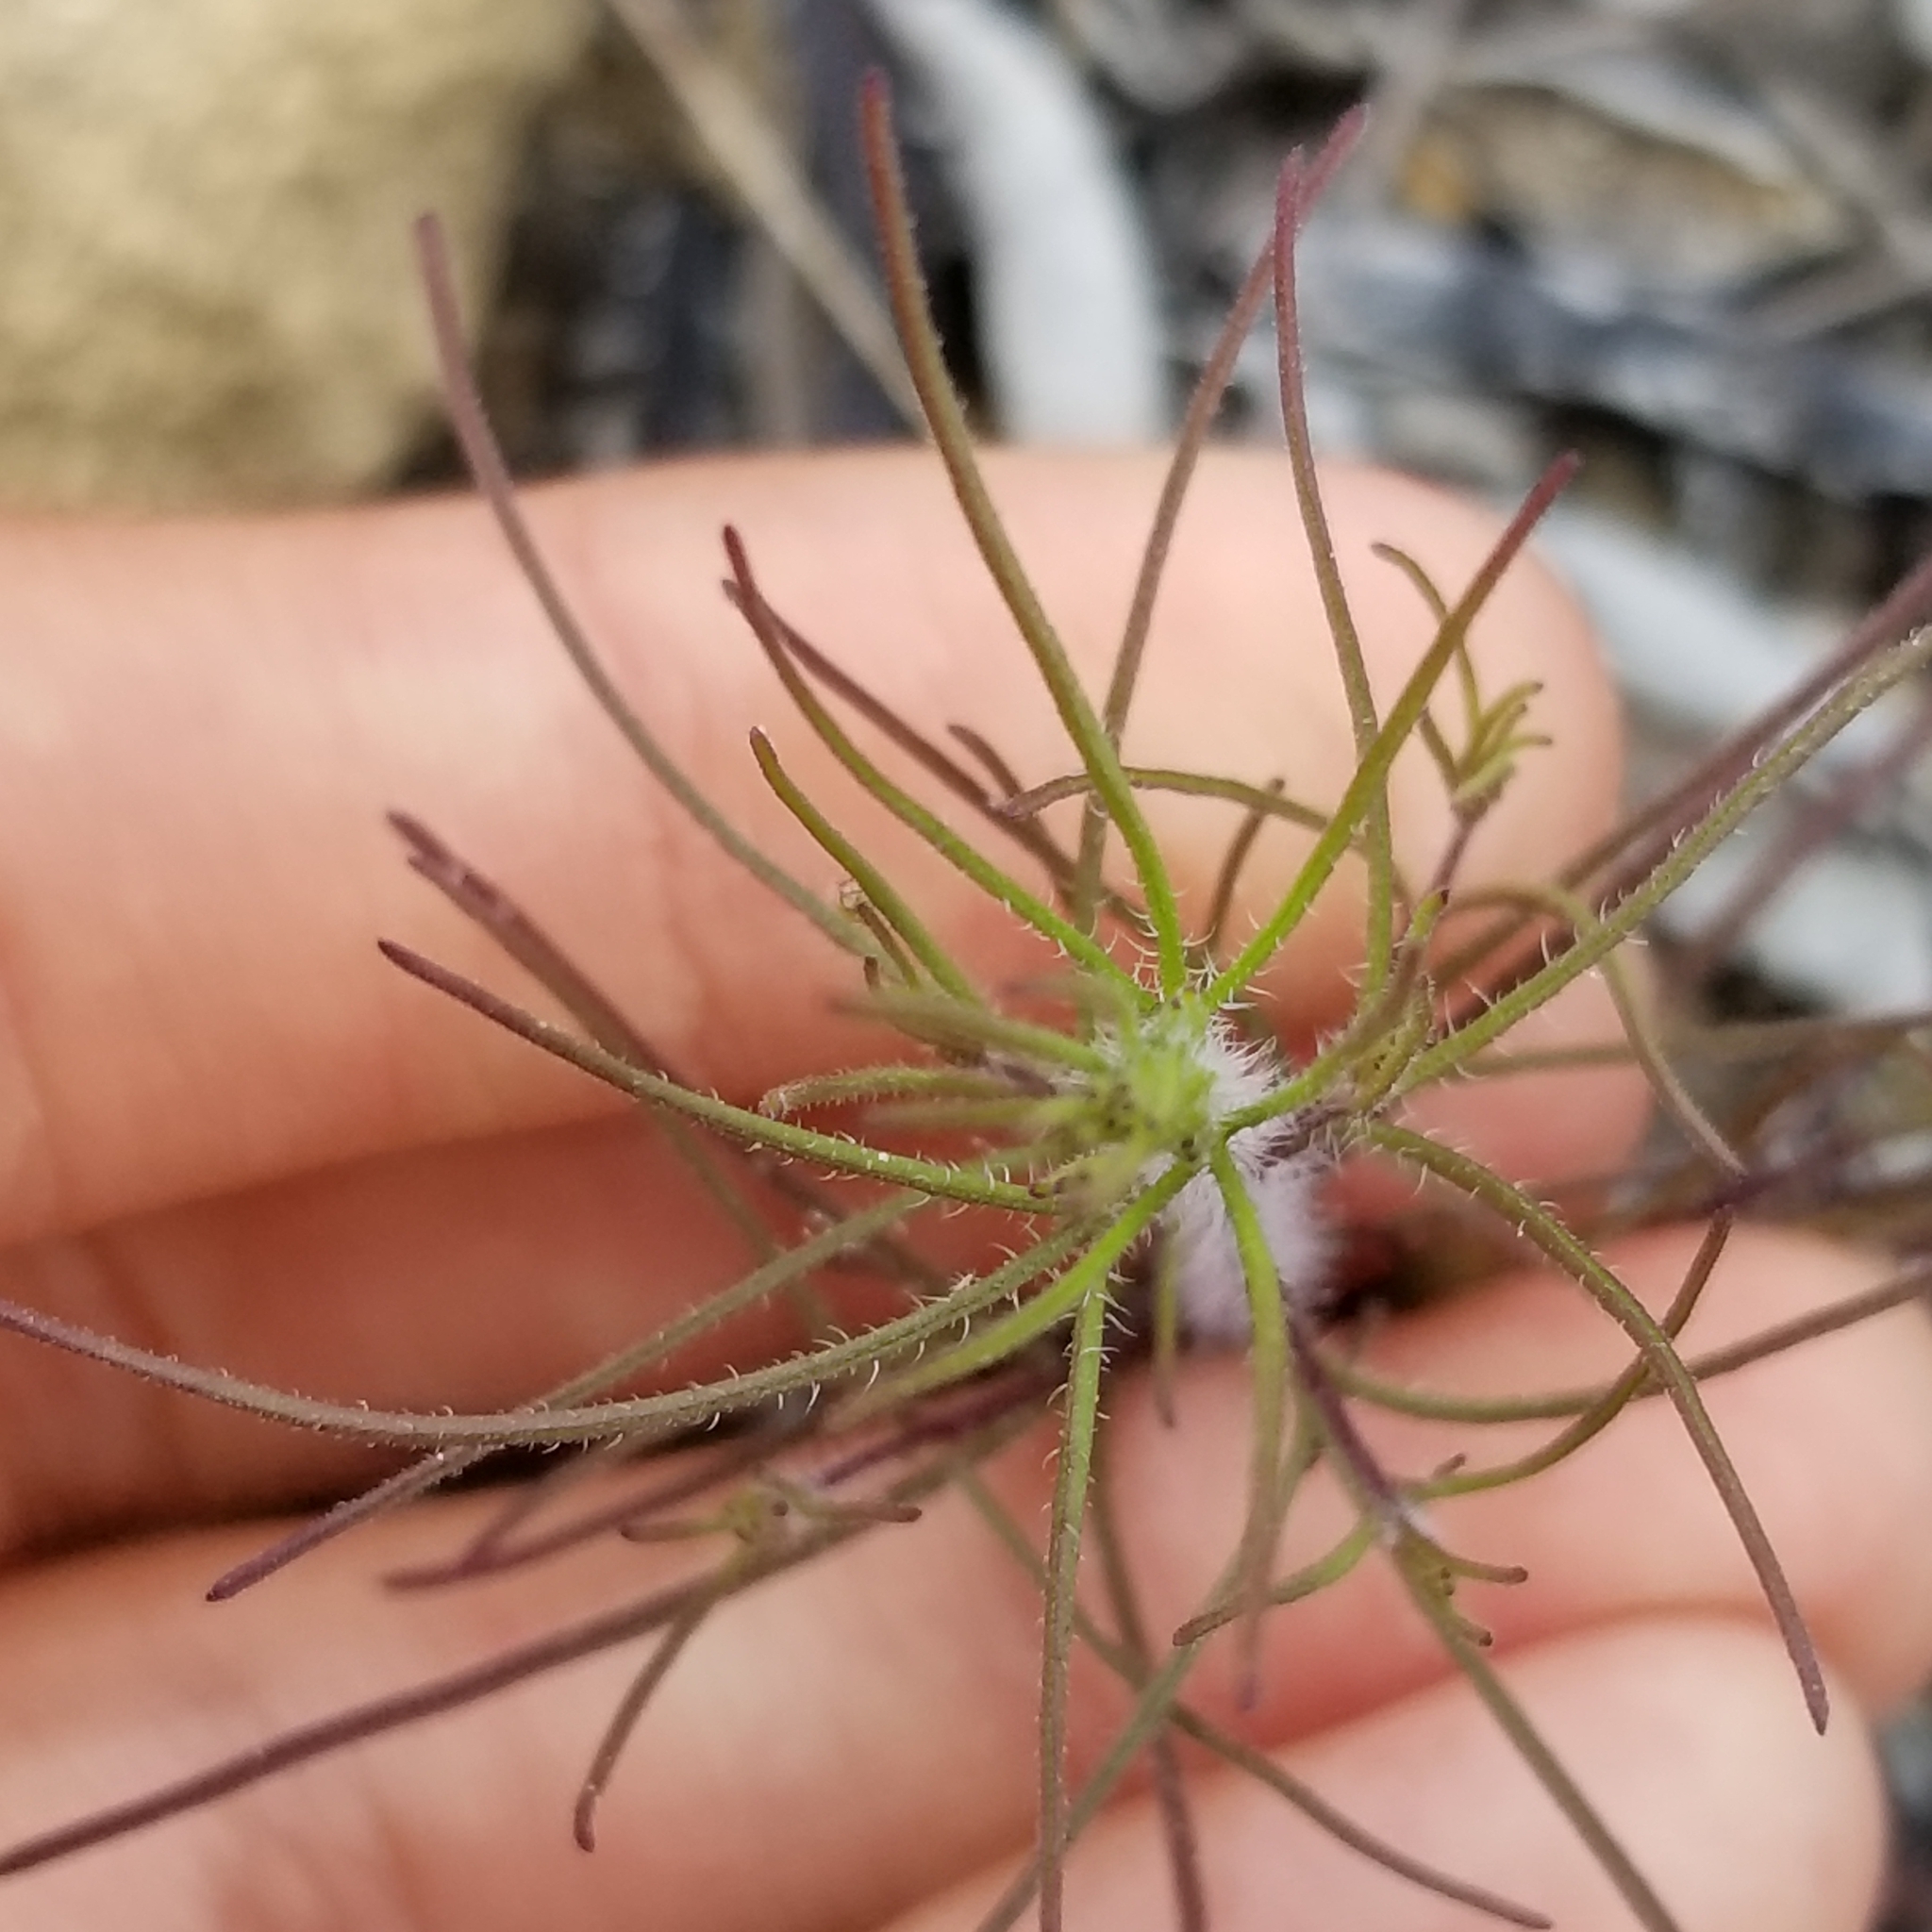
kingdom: Plantae
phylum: Tracheophyta
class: Magnoliopsida
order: Lamiales
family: Orobanchaceae
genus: Cordylanthus
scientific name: Cordylanthus rigidus
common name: Stiff-branch bird's-beak
